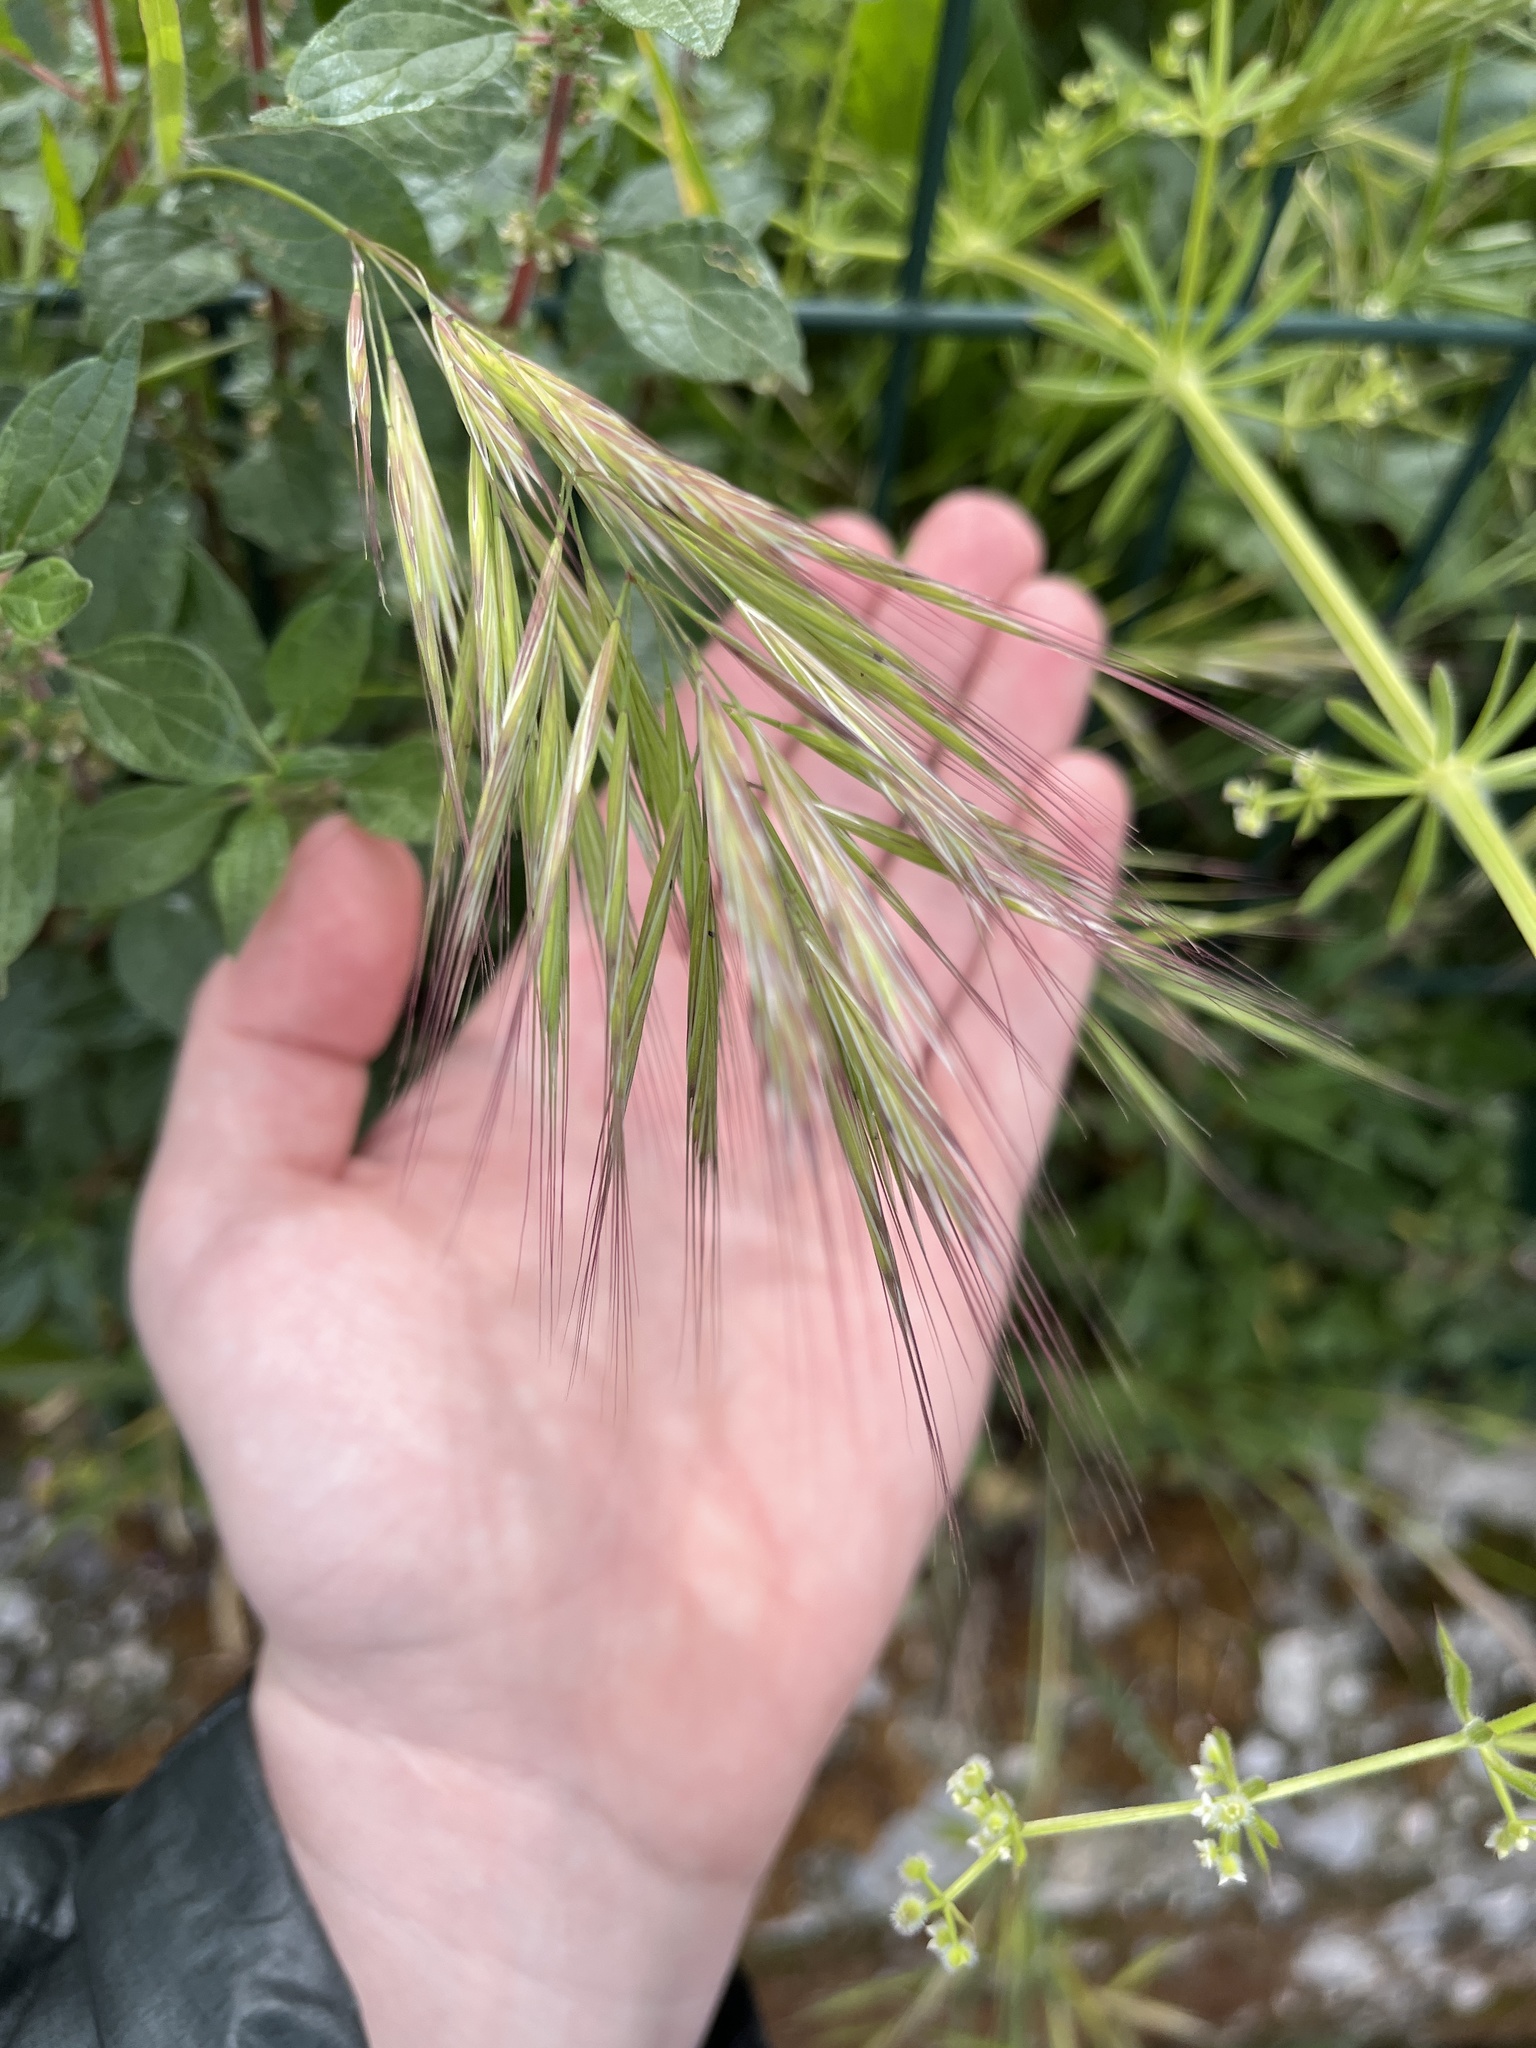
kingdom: Plantae
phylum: Tracheophyta
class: Liliopsida
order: Poales
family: Poaceae
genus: Bromus
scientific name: Bromus madritensis
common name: Compact brome
